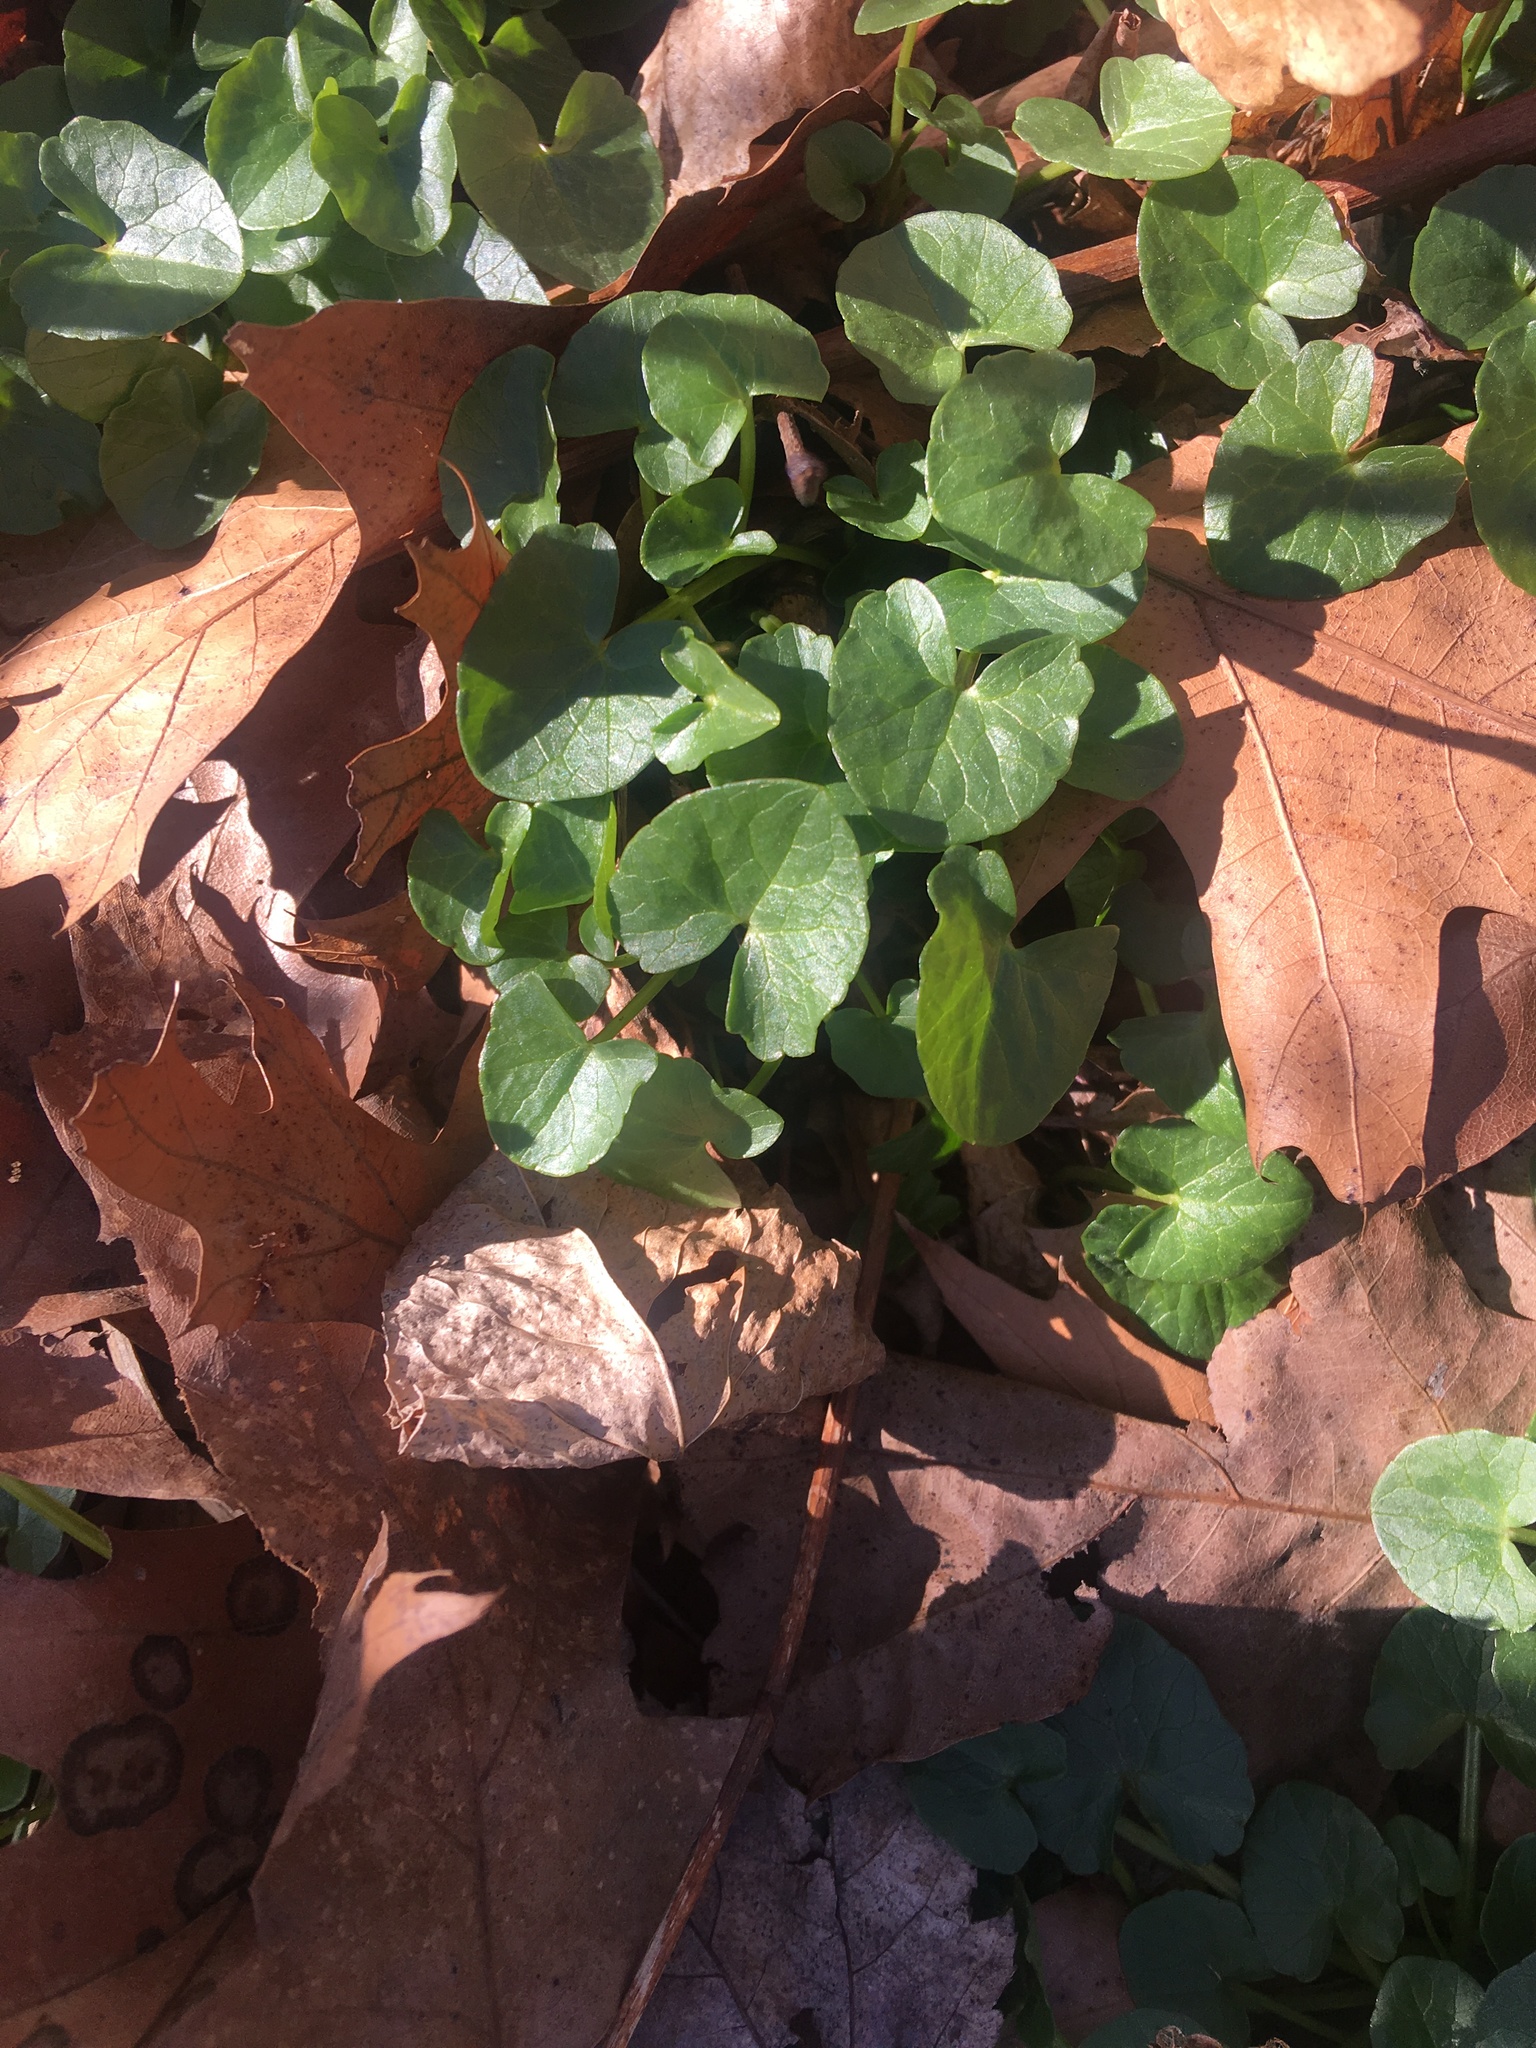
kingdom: Plantae
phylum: Tracheophyta
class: Magnoliopsida
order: Ranunculales
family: Ranunculaceae
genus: Ficaria
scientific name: Ficaria verna
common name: Lesser celandine
